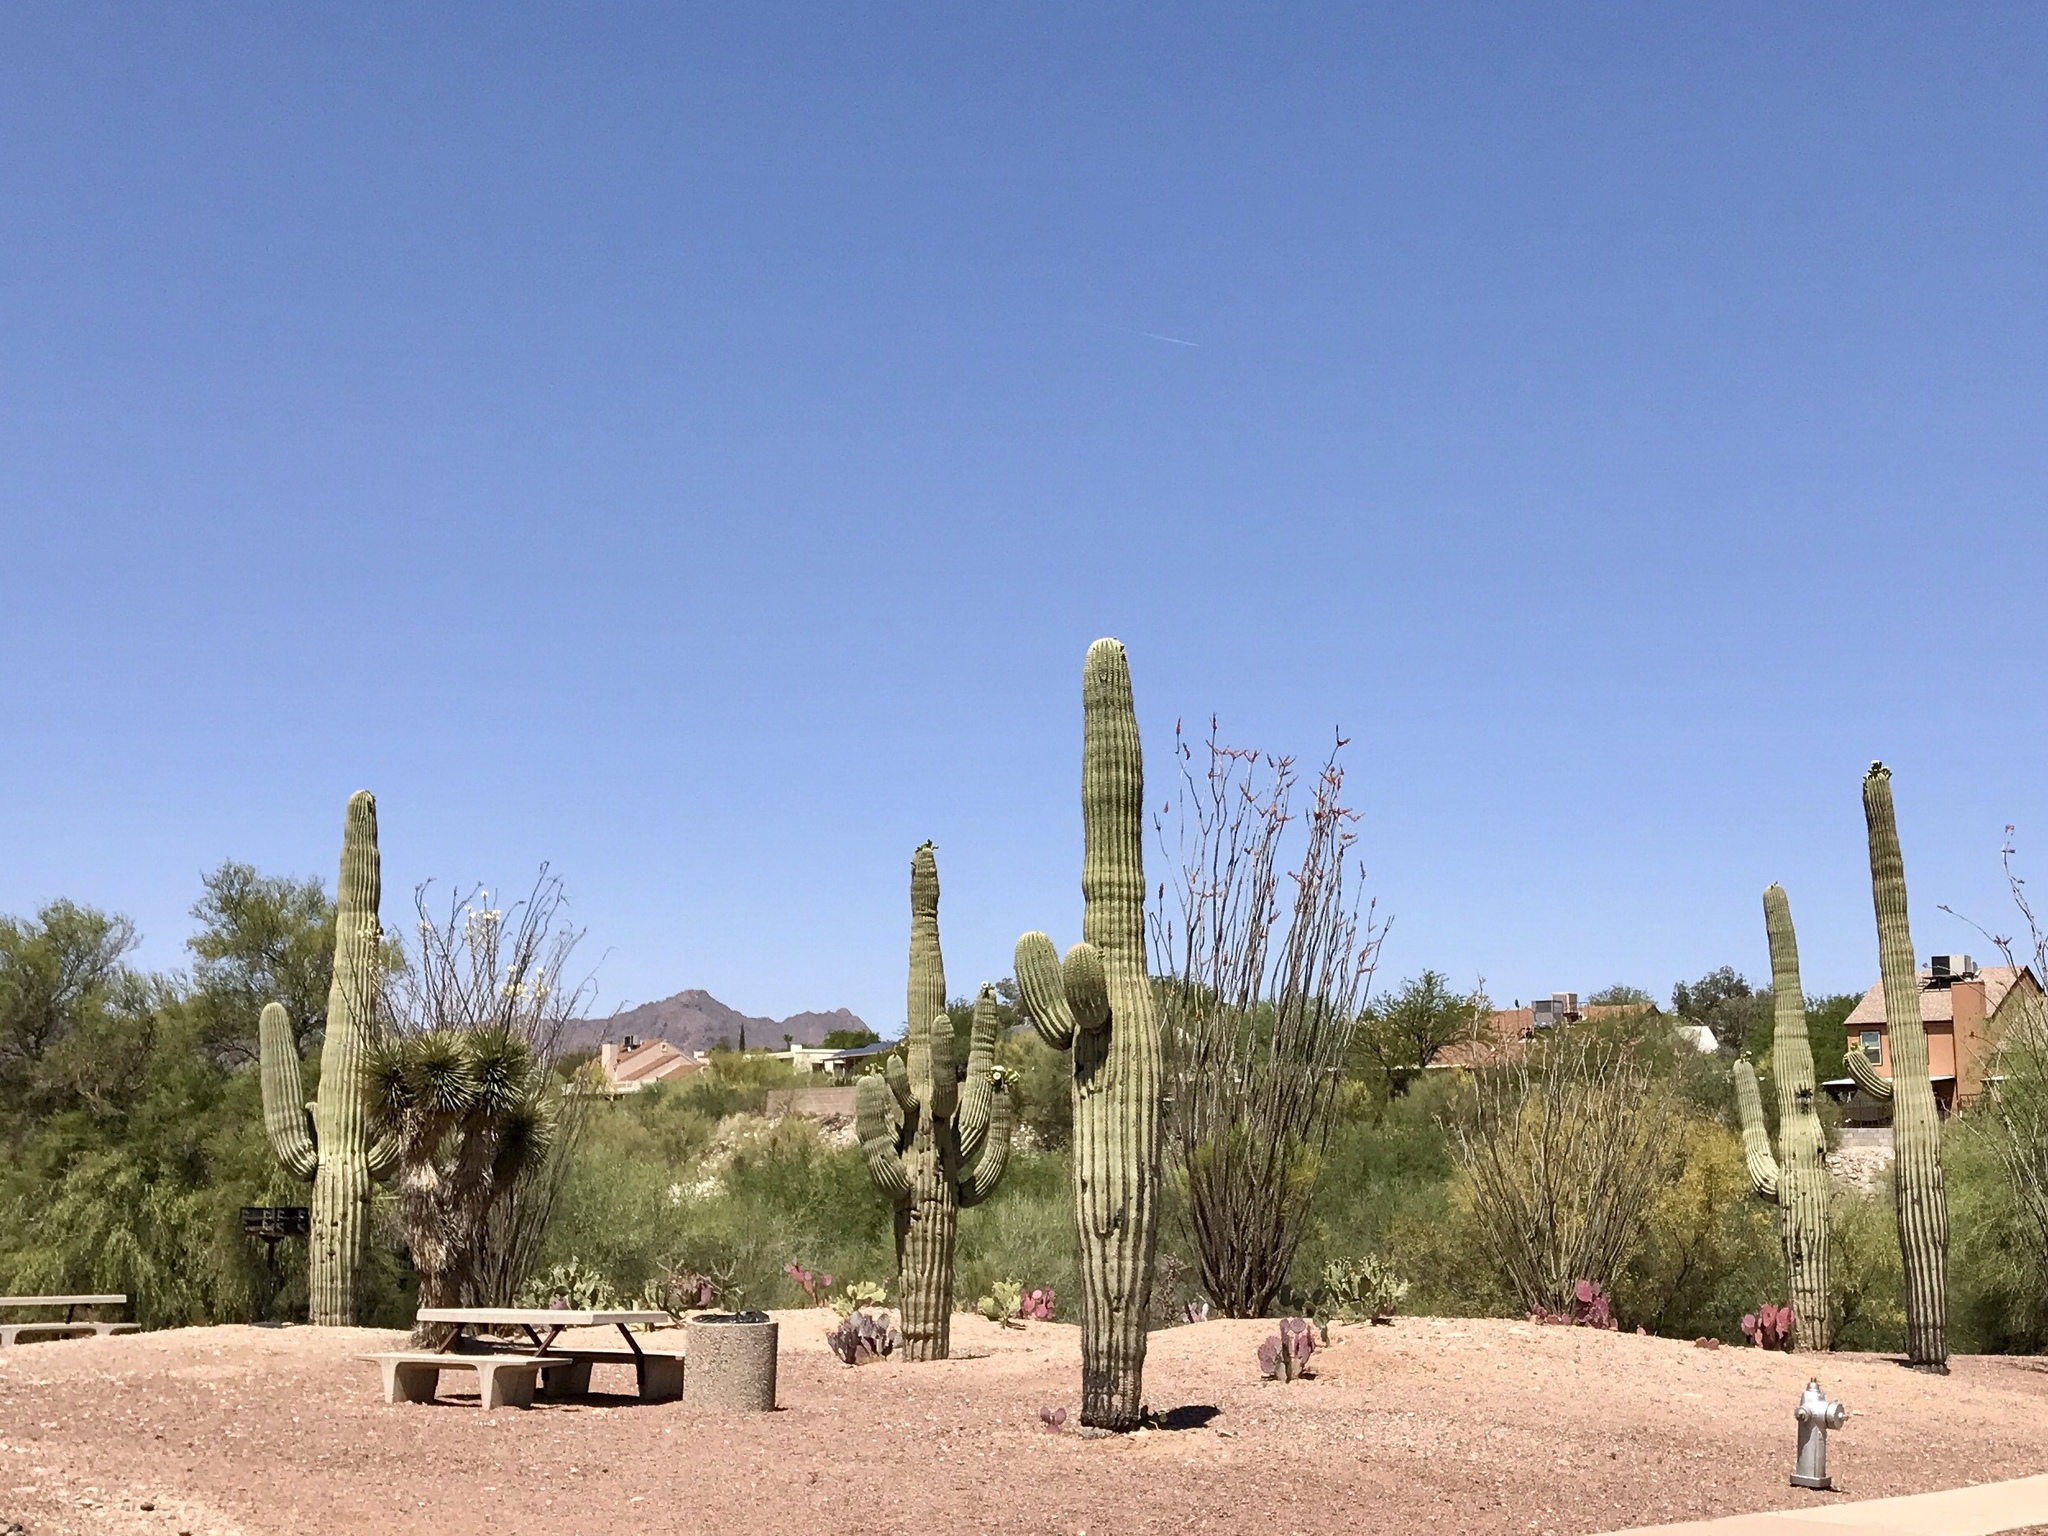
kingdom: Plantae
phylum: Tracheophyta
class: Magnoliopsida
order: Caryophyllales
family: Cactaceae
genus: Carnegiea
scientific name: Carnegiea gigantea
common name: Saguaro
